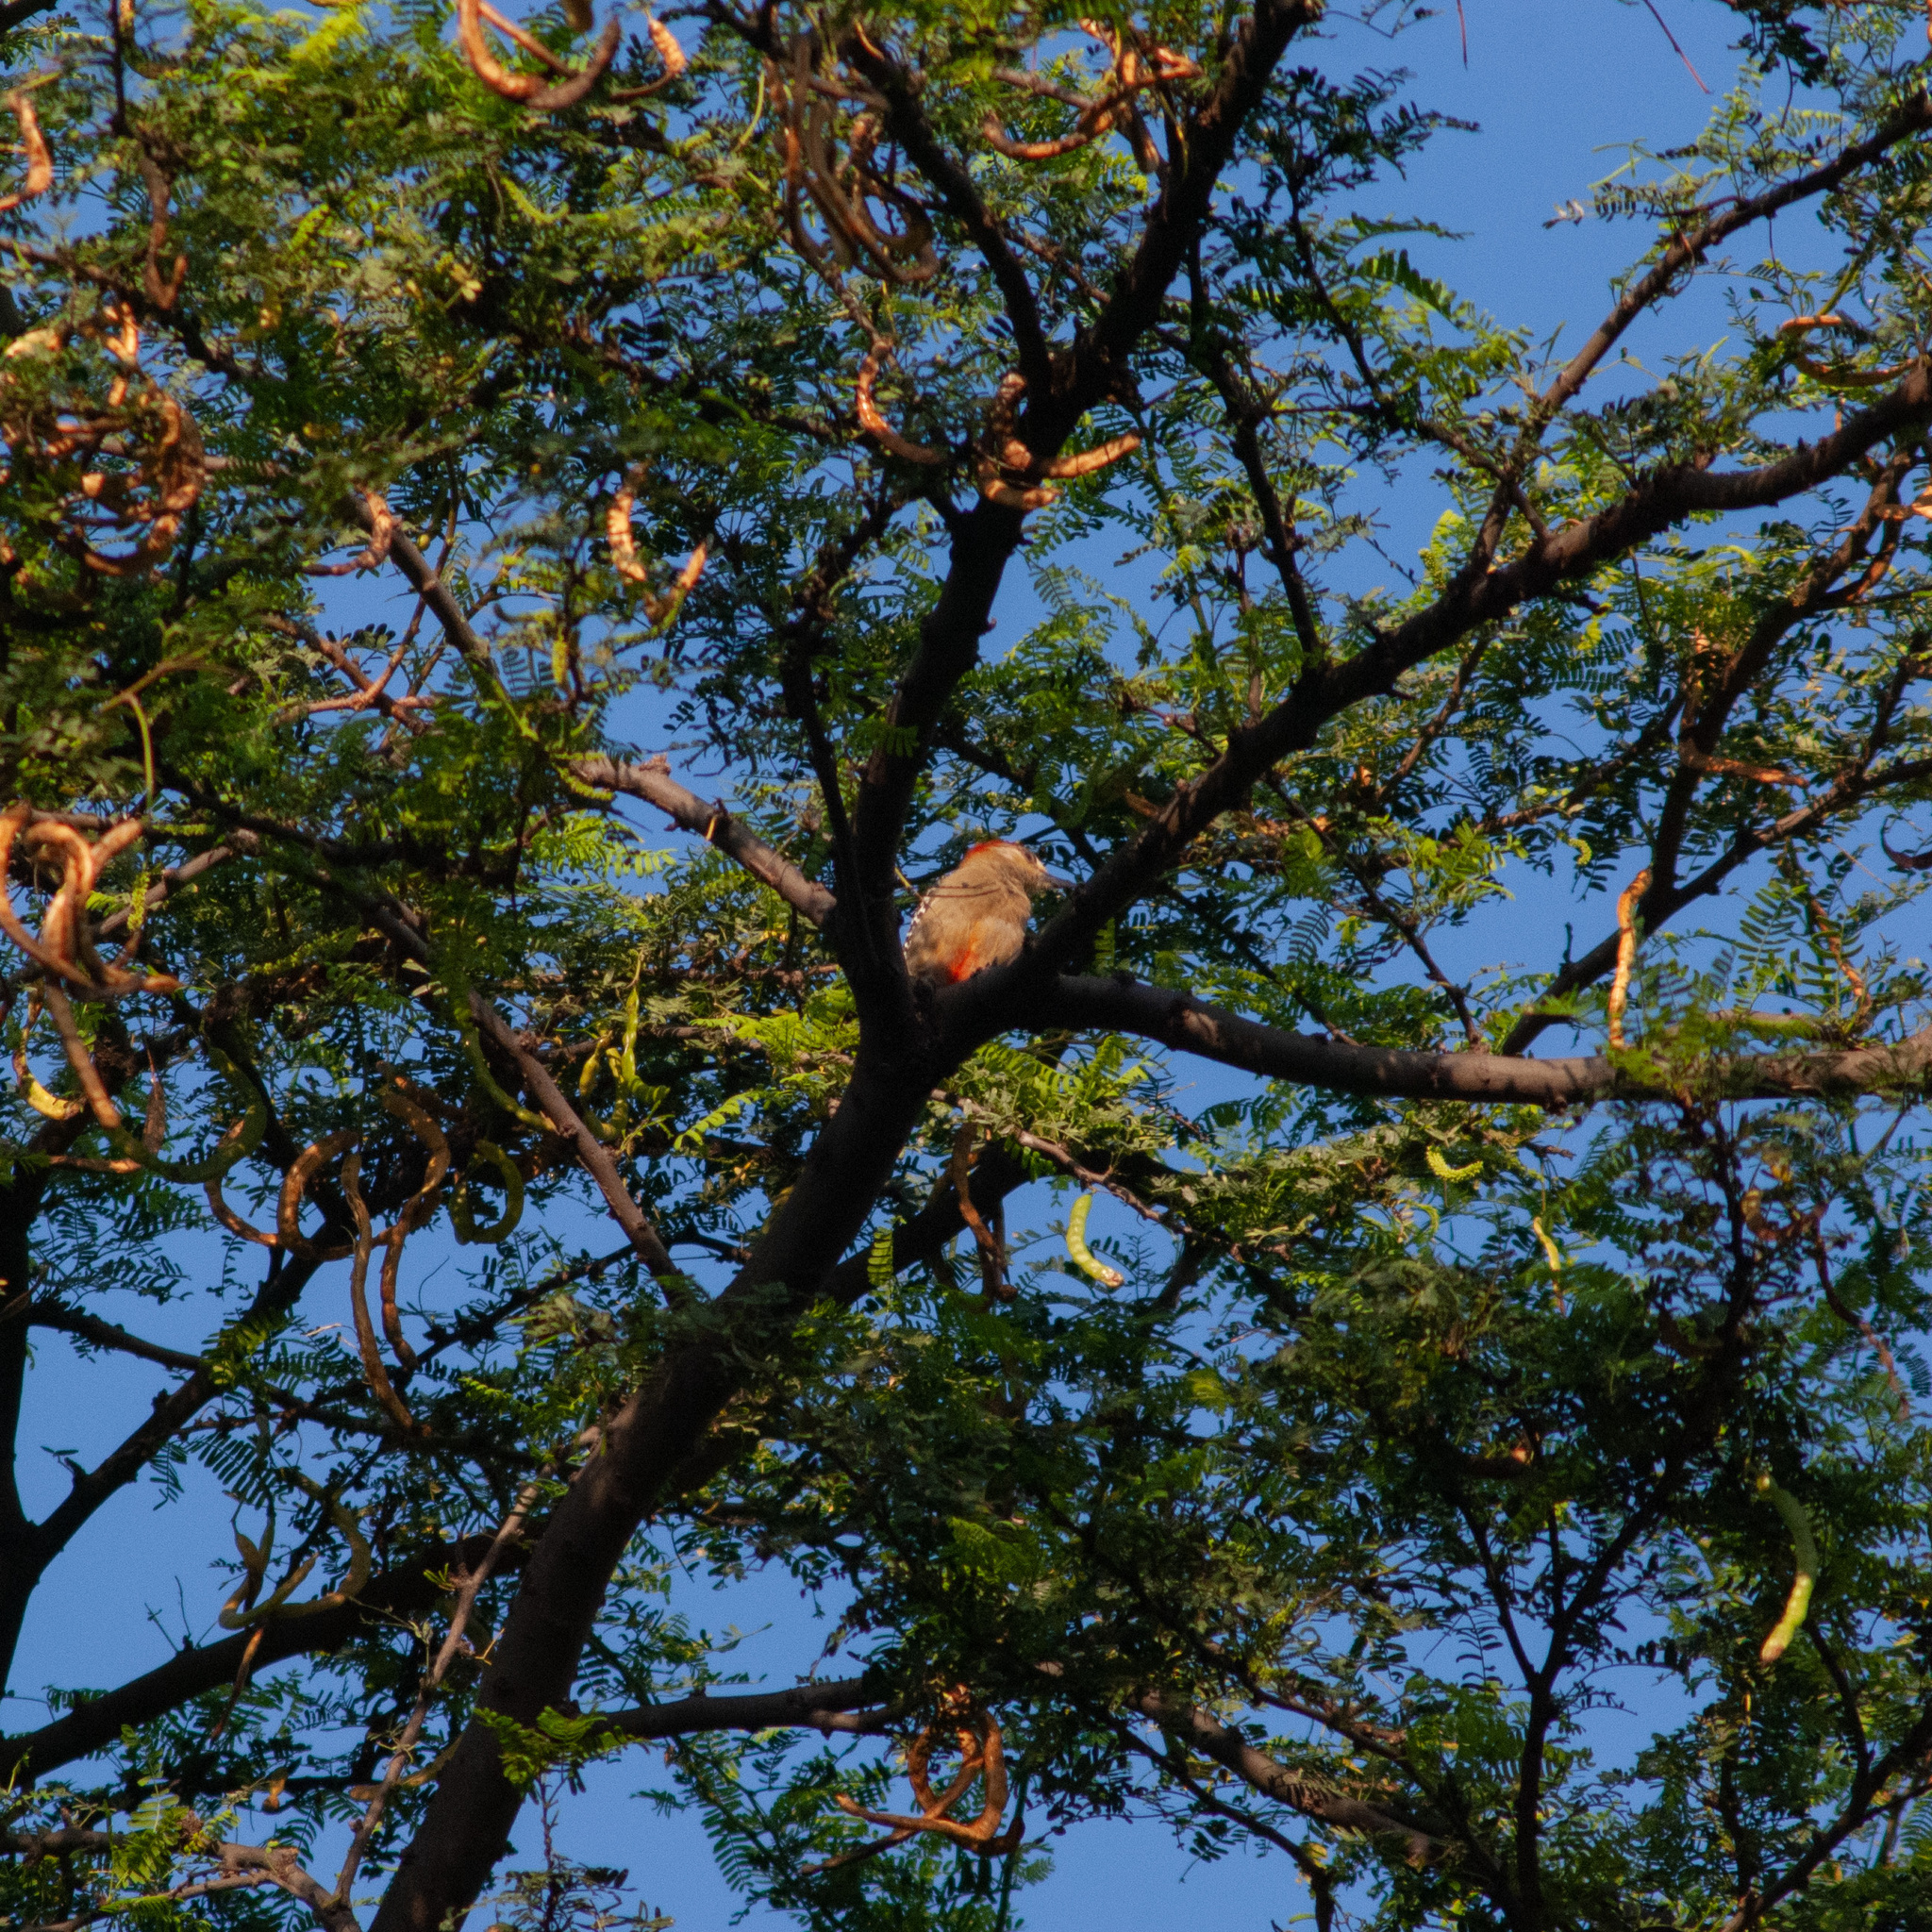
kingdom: Animalia
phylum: Chordata
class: Aves
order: Piciformes
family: Picidae
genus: Melanerpes
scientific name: Melanerpes rubricapillus
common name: Red-crowned woodpecker
